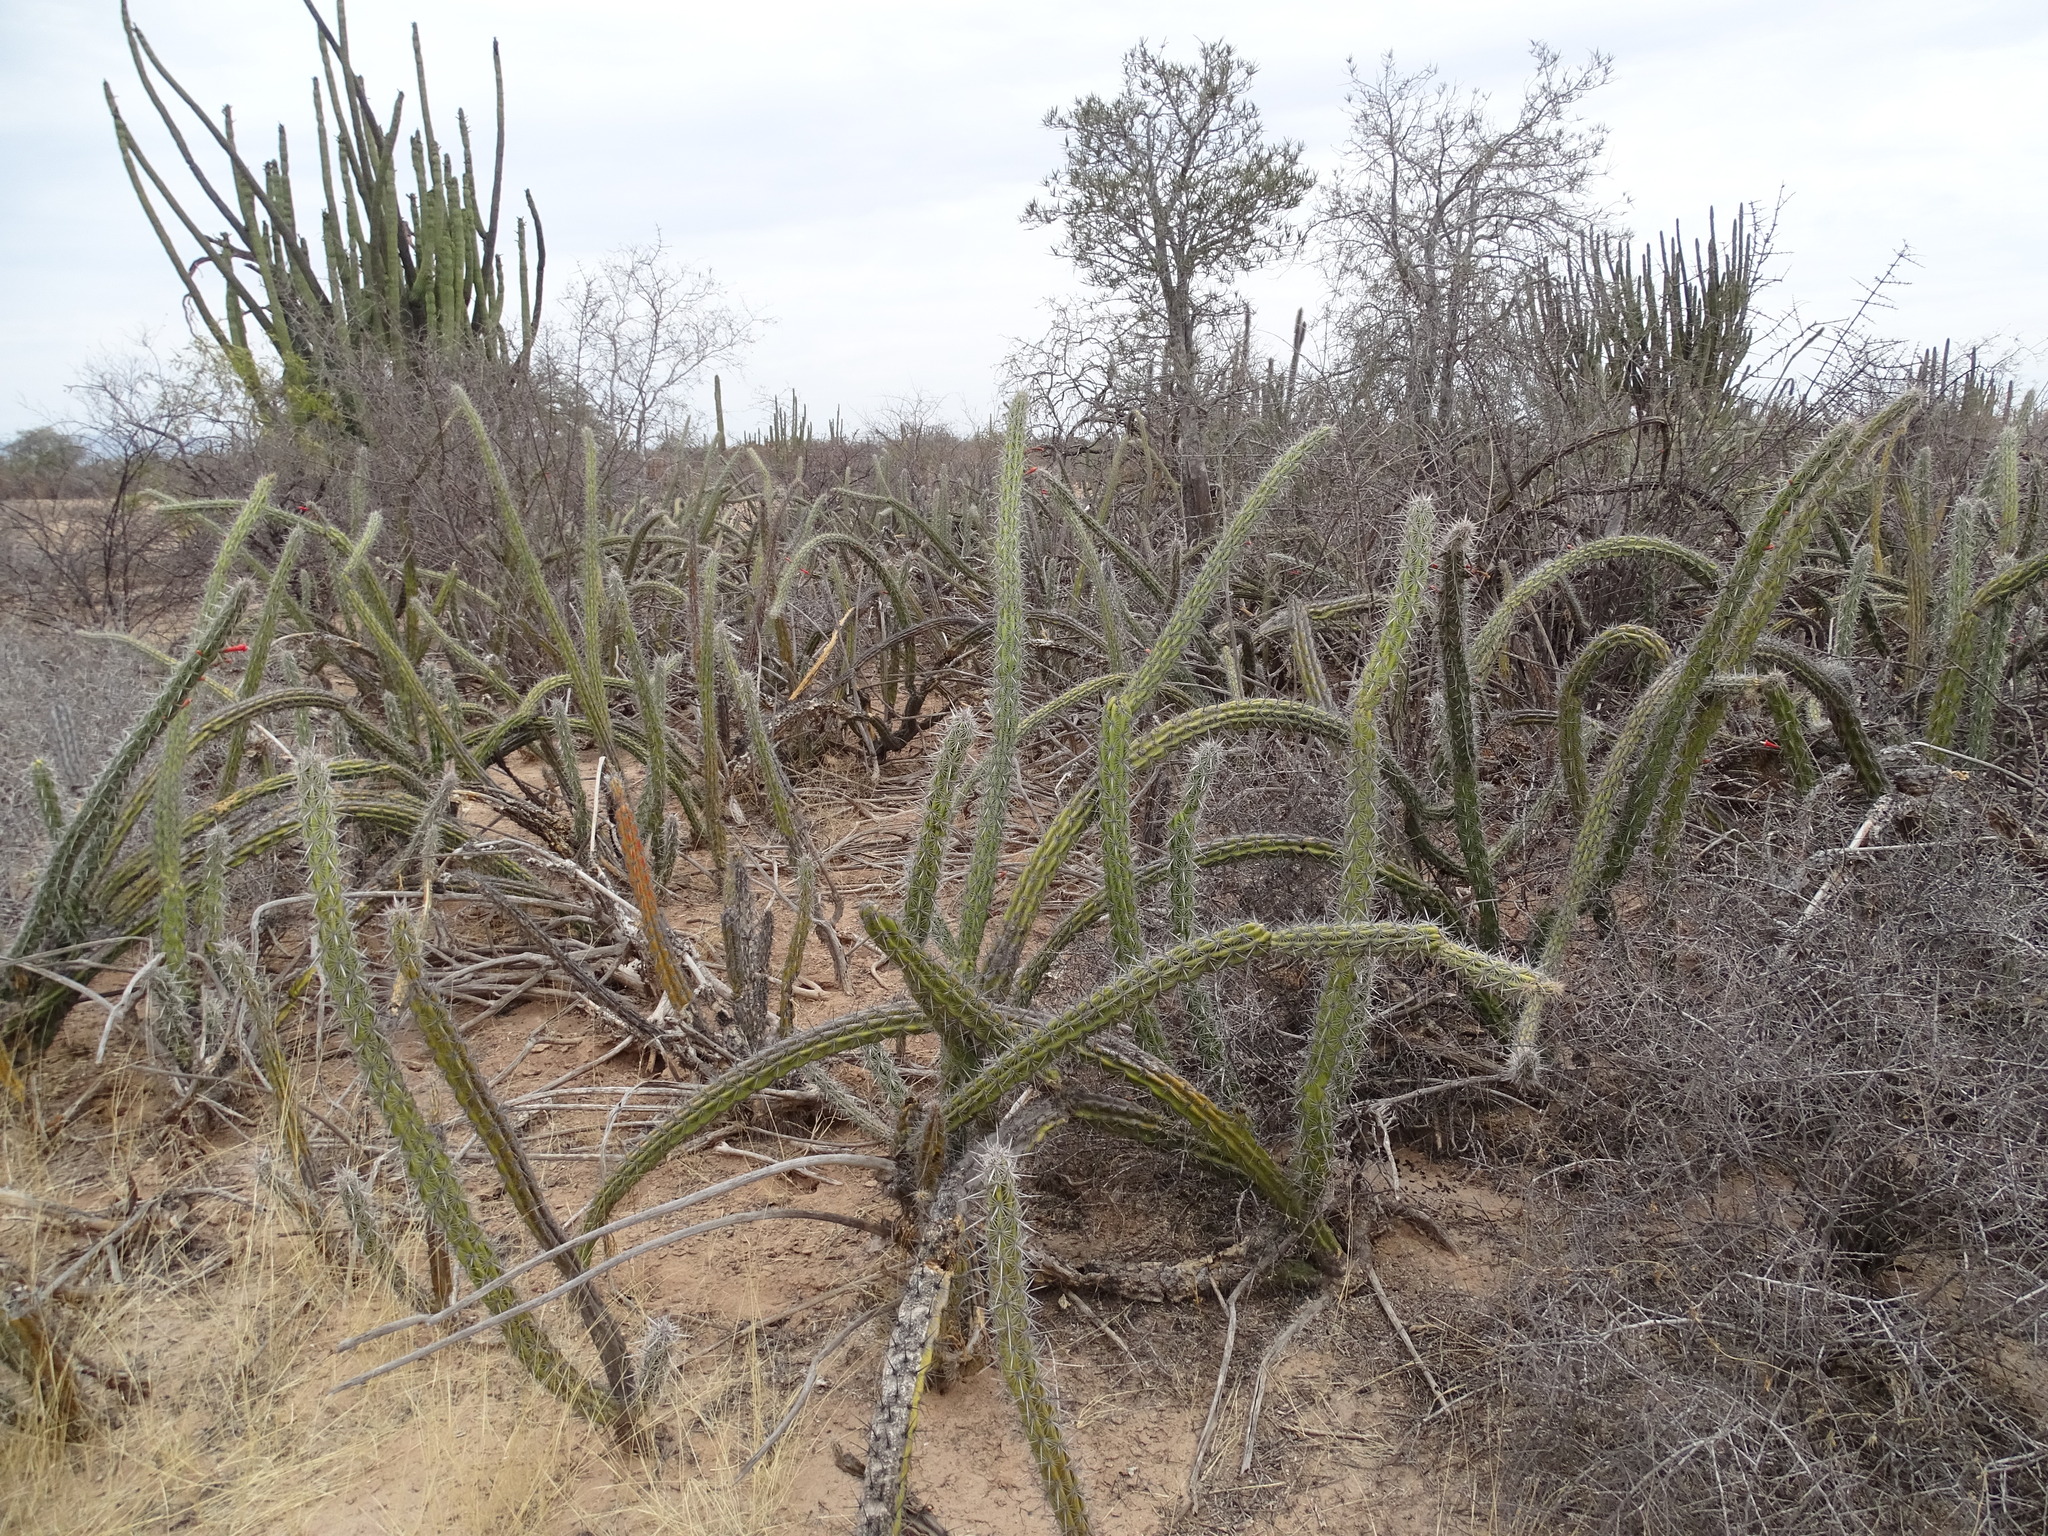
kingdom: Plantae
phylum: Tracheophyta
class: Magnoliopsida
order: Caryophyllales
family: Cactaceae
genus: Stenocereus
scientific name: Stenocereus alamosensis
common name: Octopus cactus
